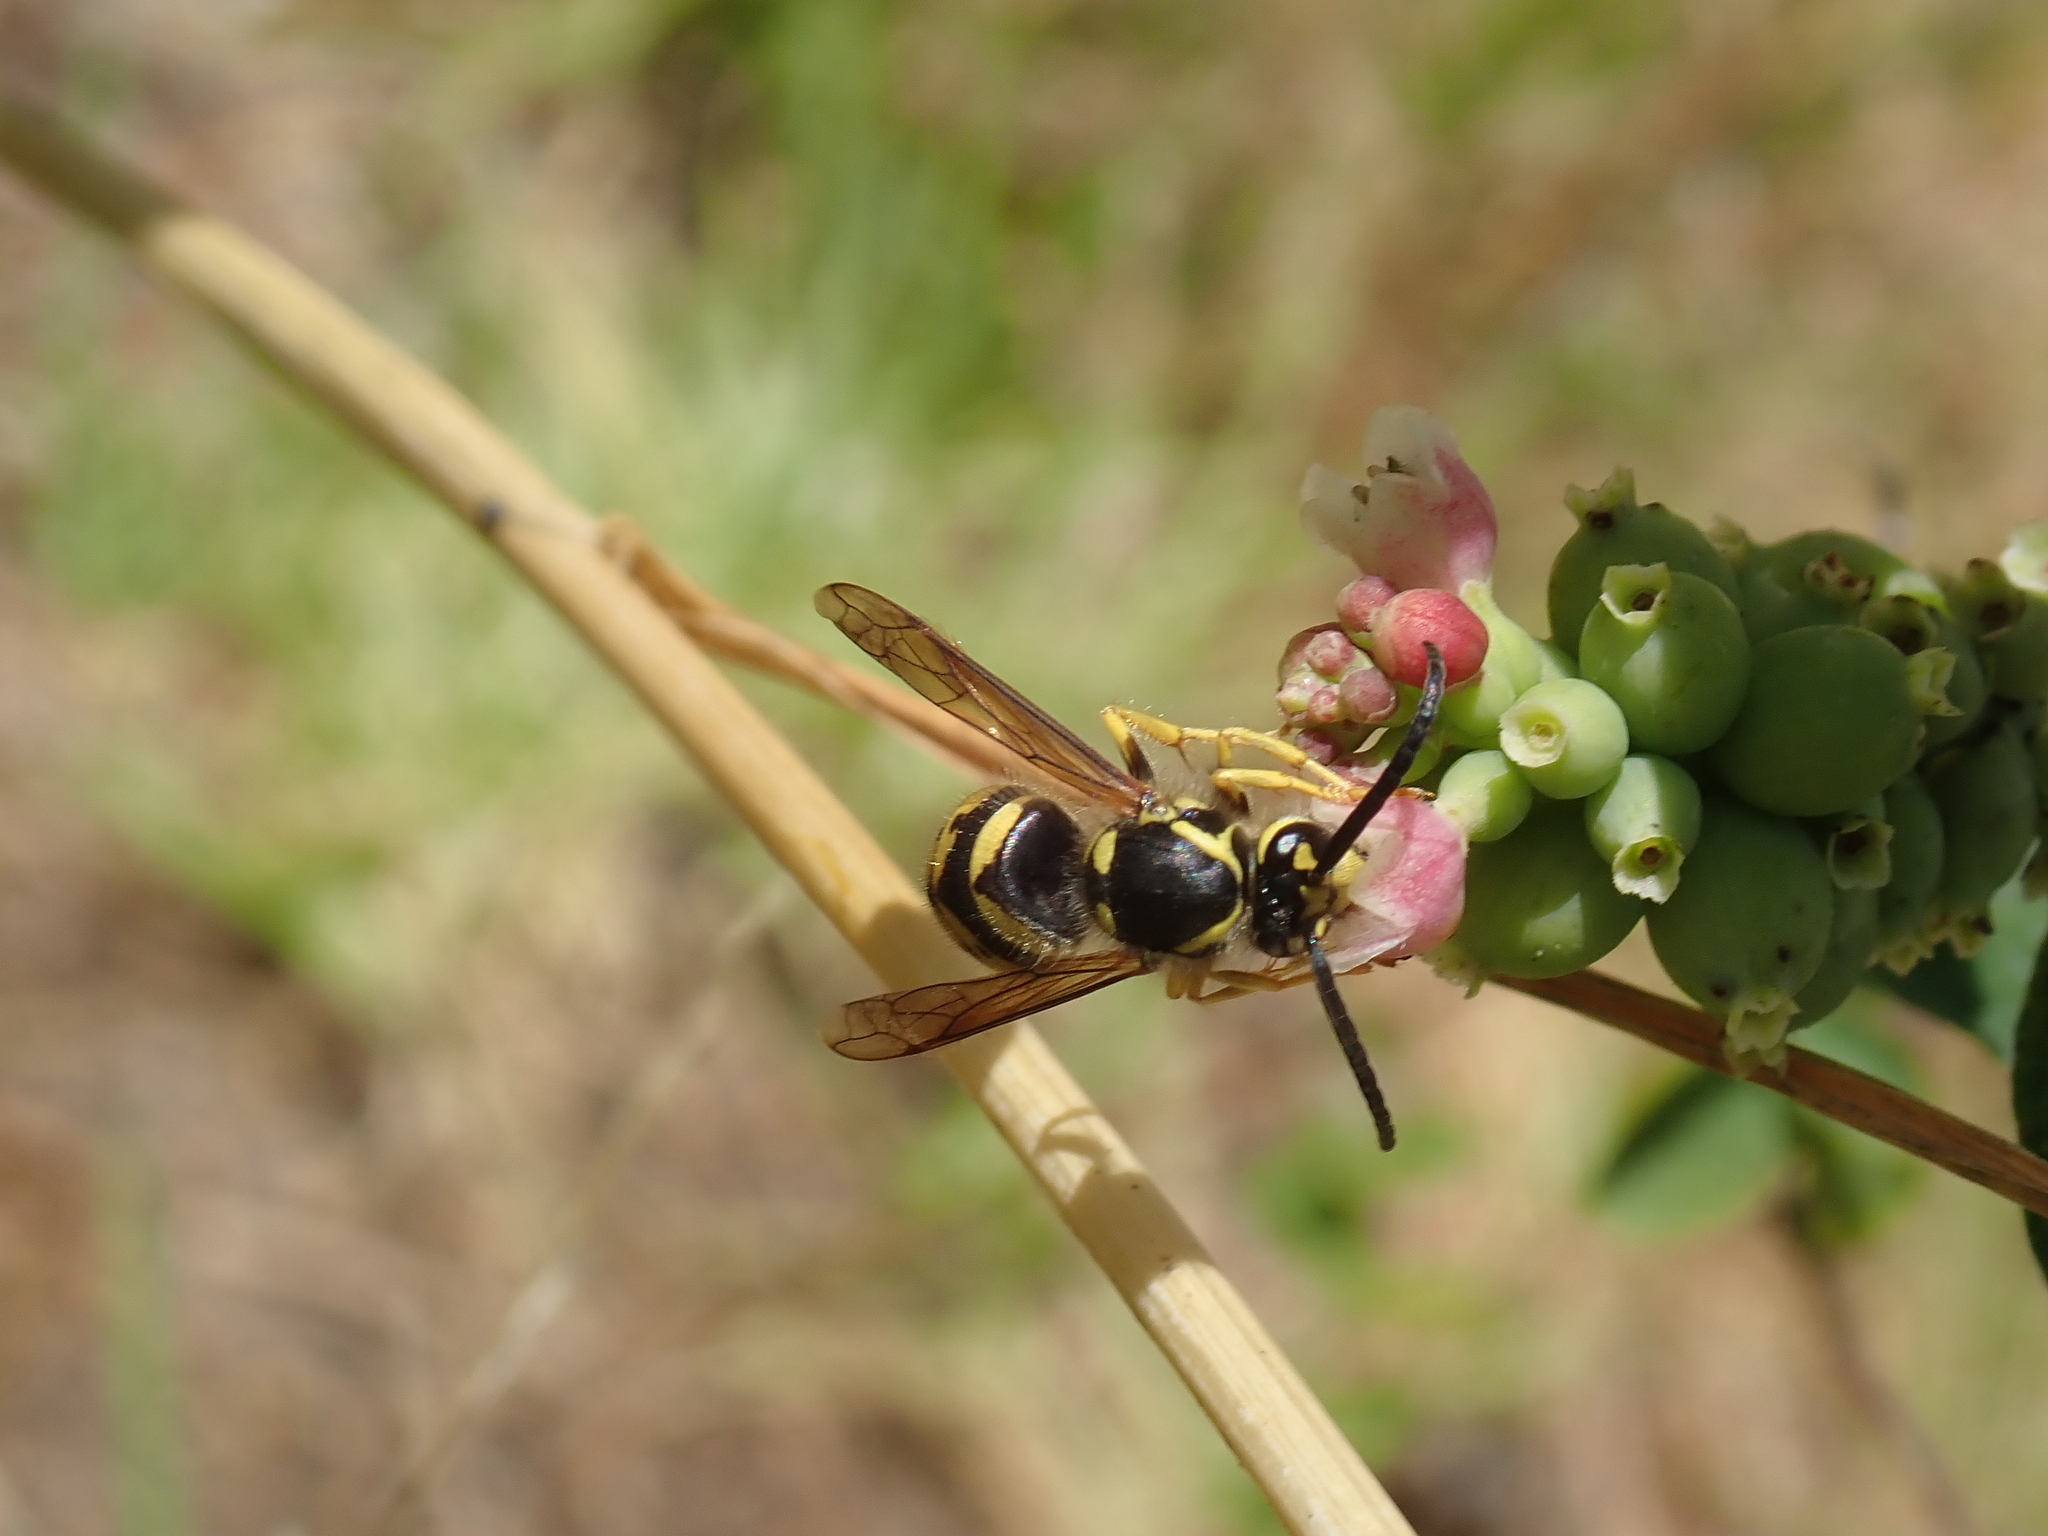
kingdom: Animalia
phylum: Arthropoda
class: Insecta
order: Hymenoptera
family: Vespidae
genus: Dolichovespula
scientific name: Dolichovespula arenaria
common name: Aerial yellowjacket
